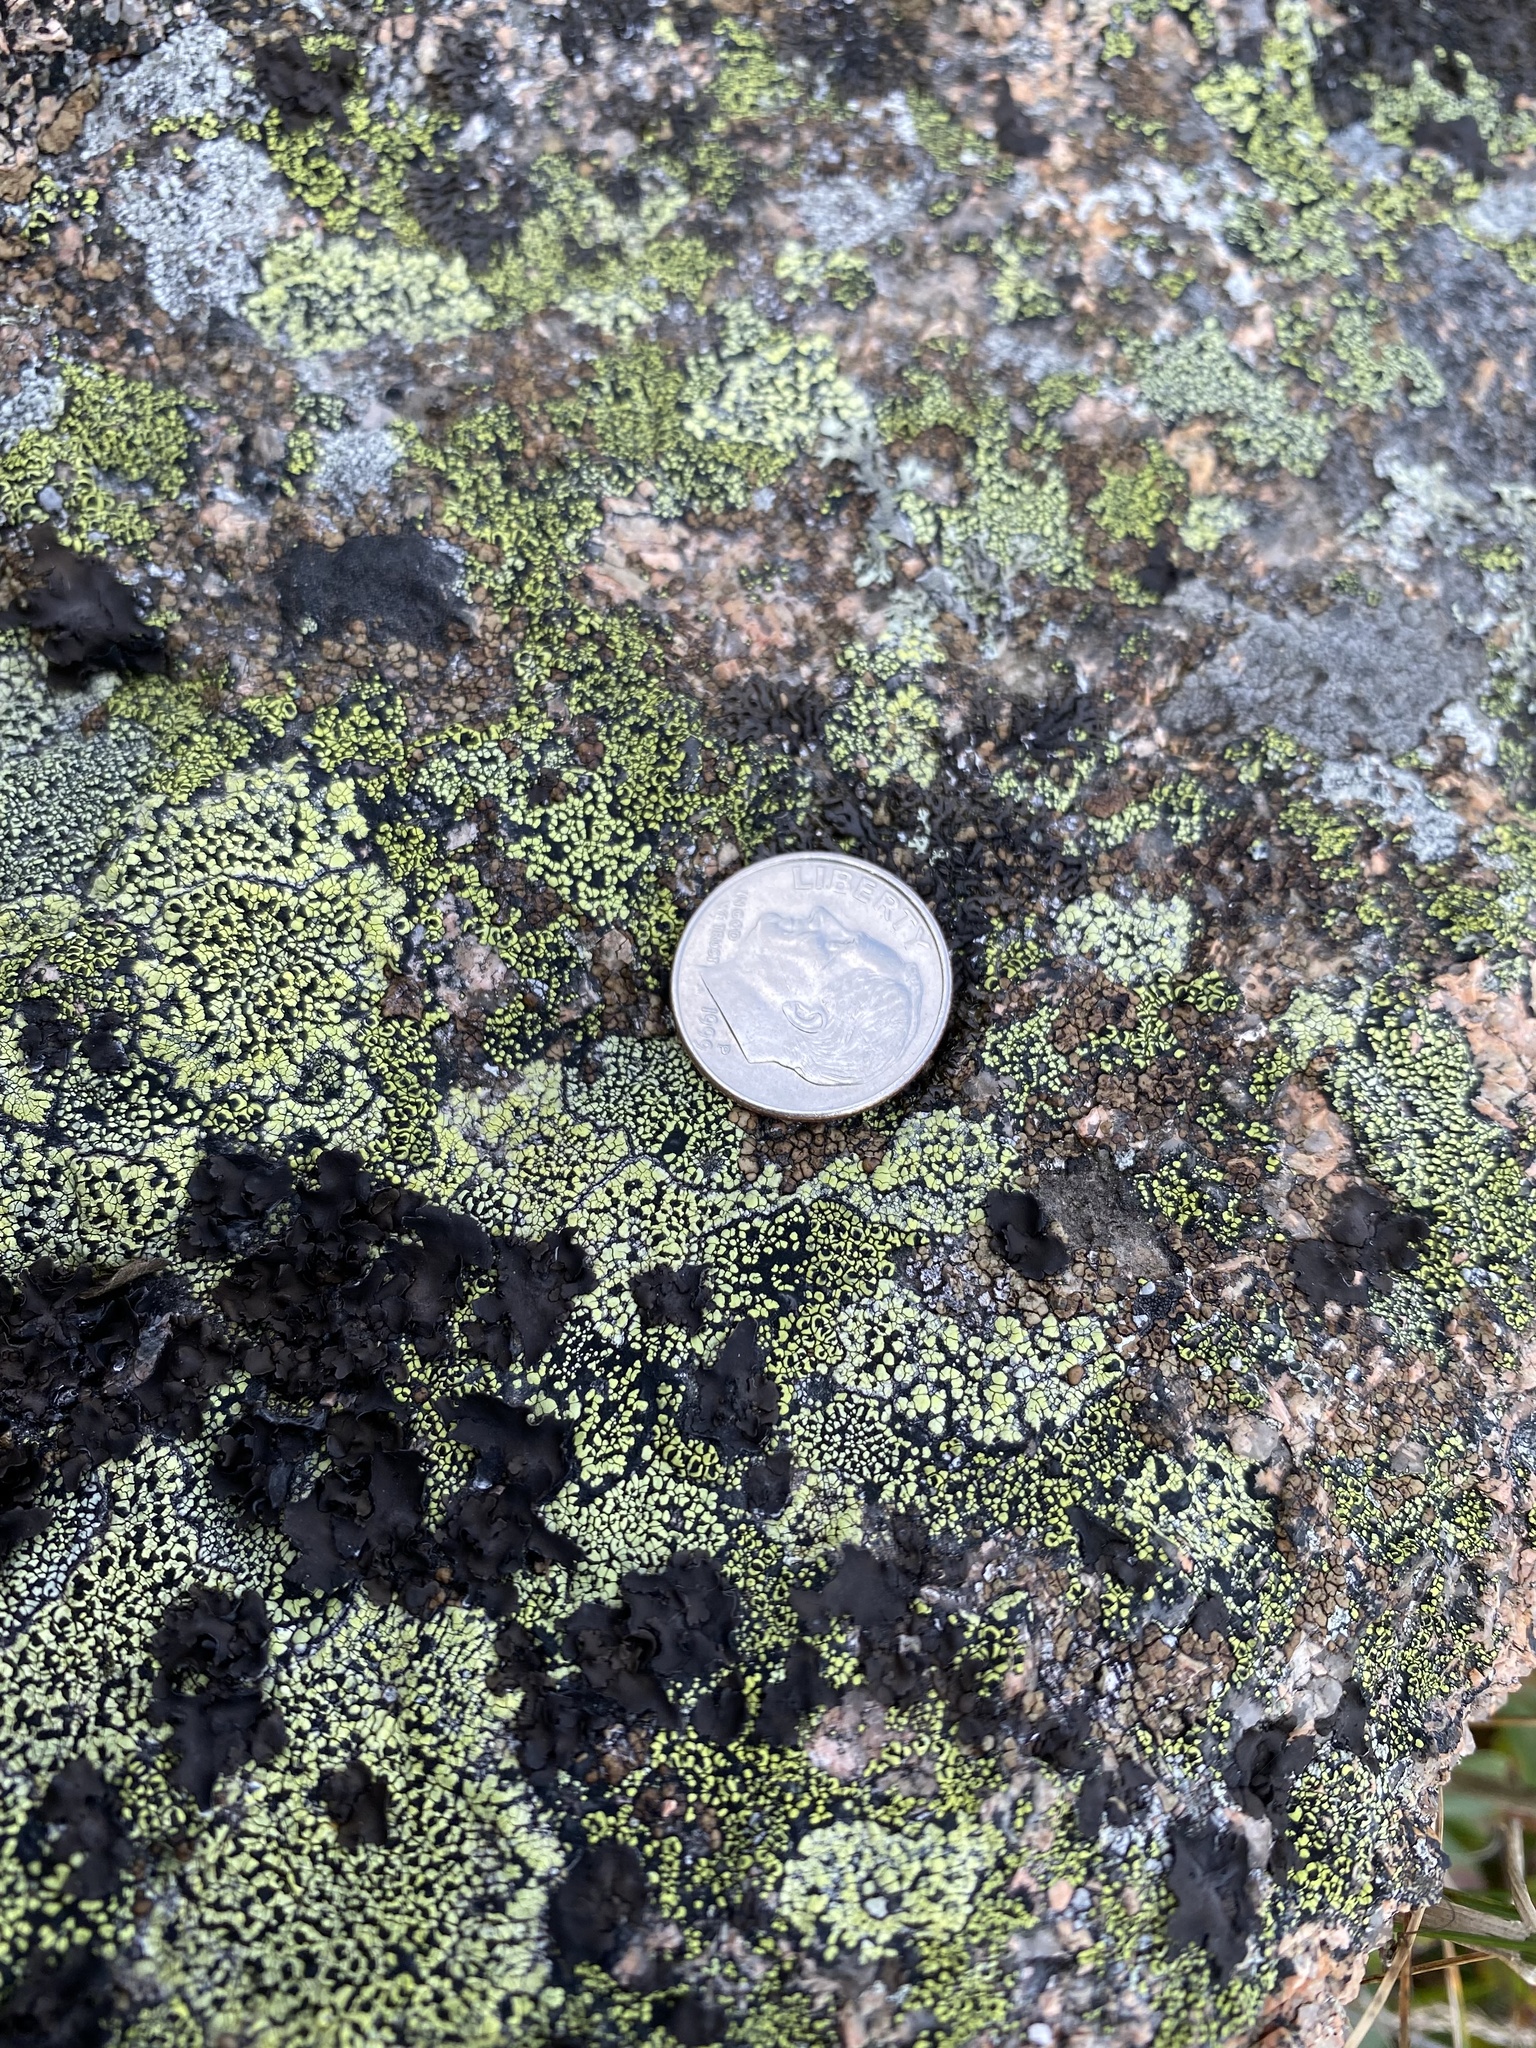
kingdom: Fungi
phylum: Ascomycota
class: Lecanoromycetes
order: Umbilicariales
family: Umbilicariaceae
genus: Umbilicaria
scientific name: Umbilicaria deusta
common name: Peppered rock tripe
